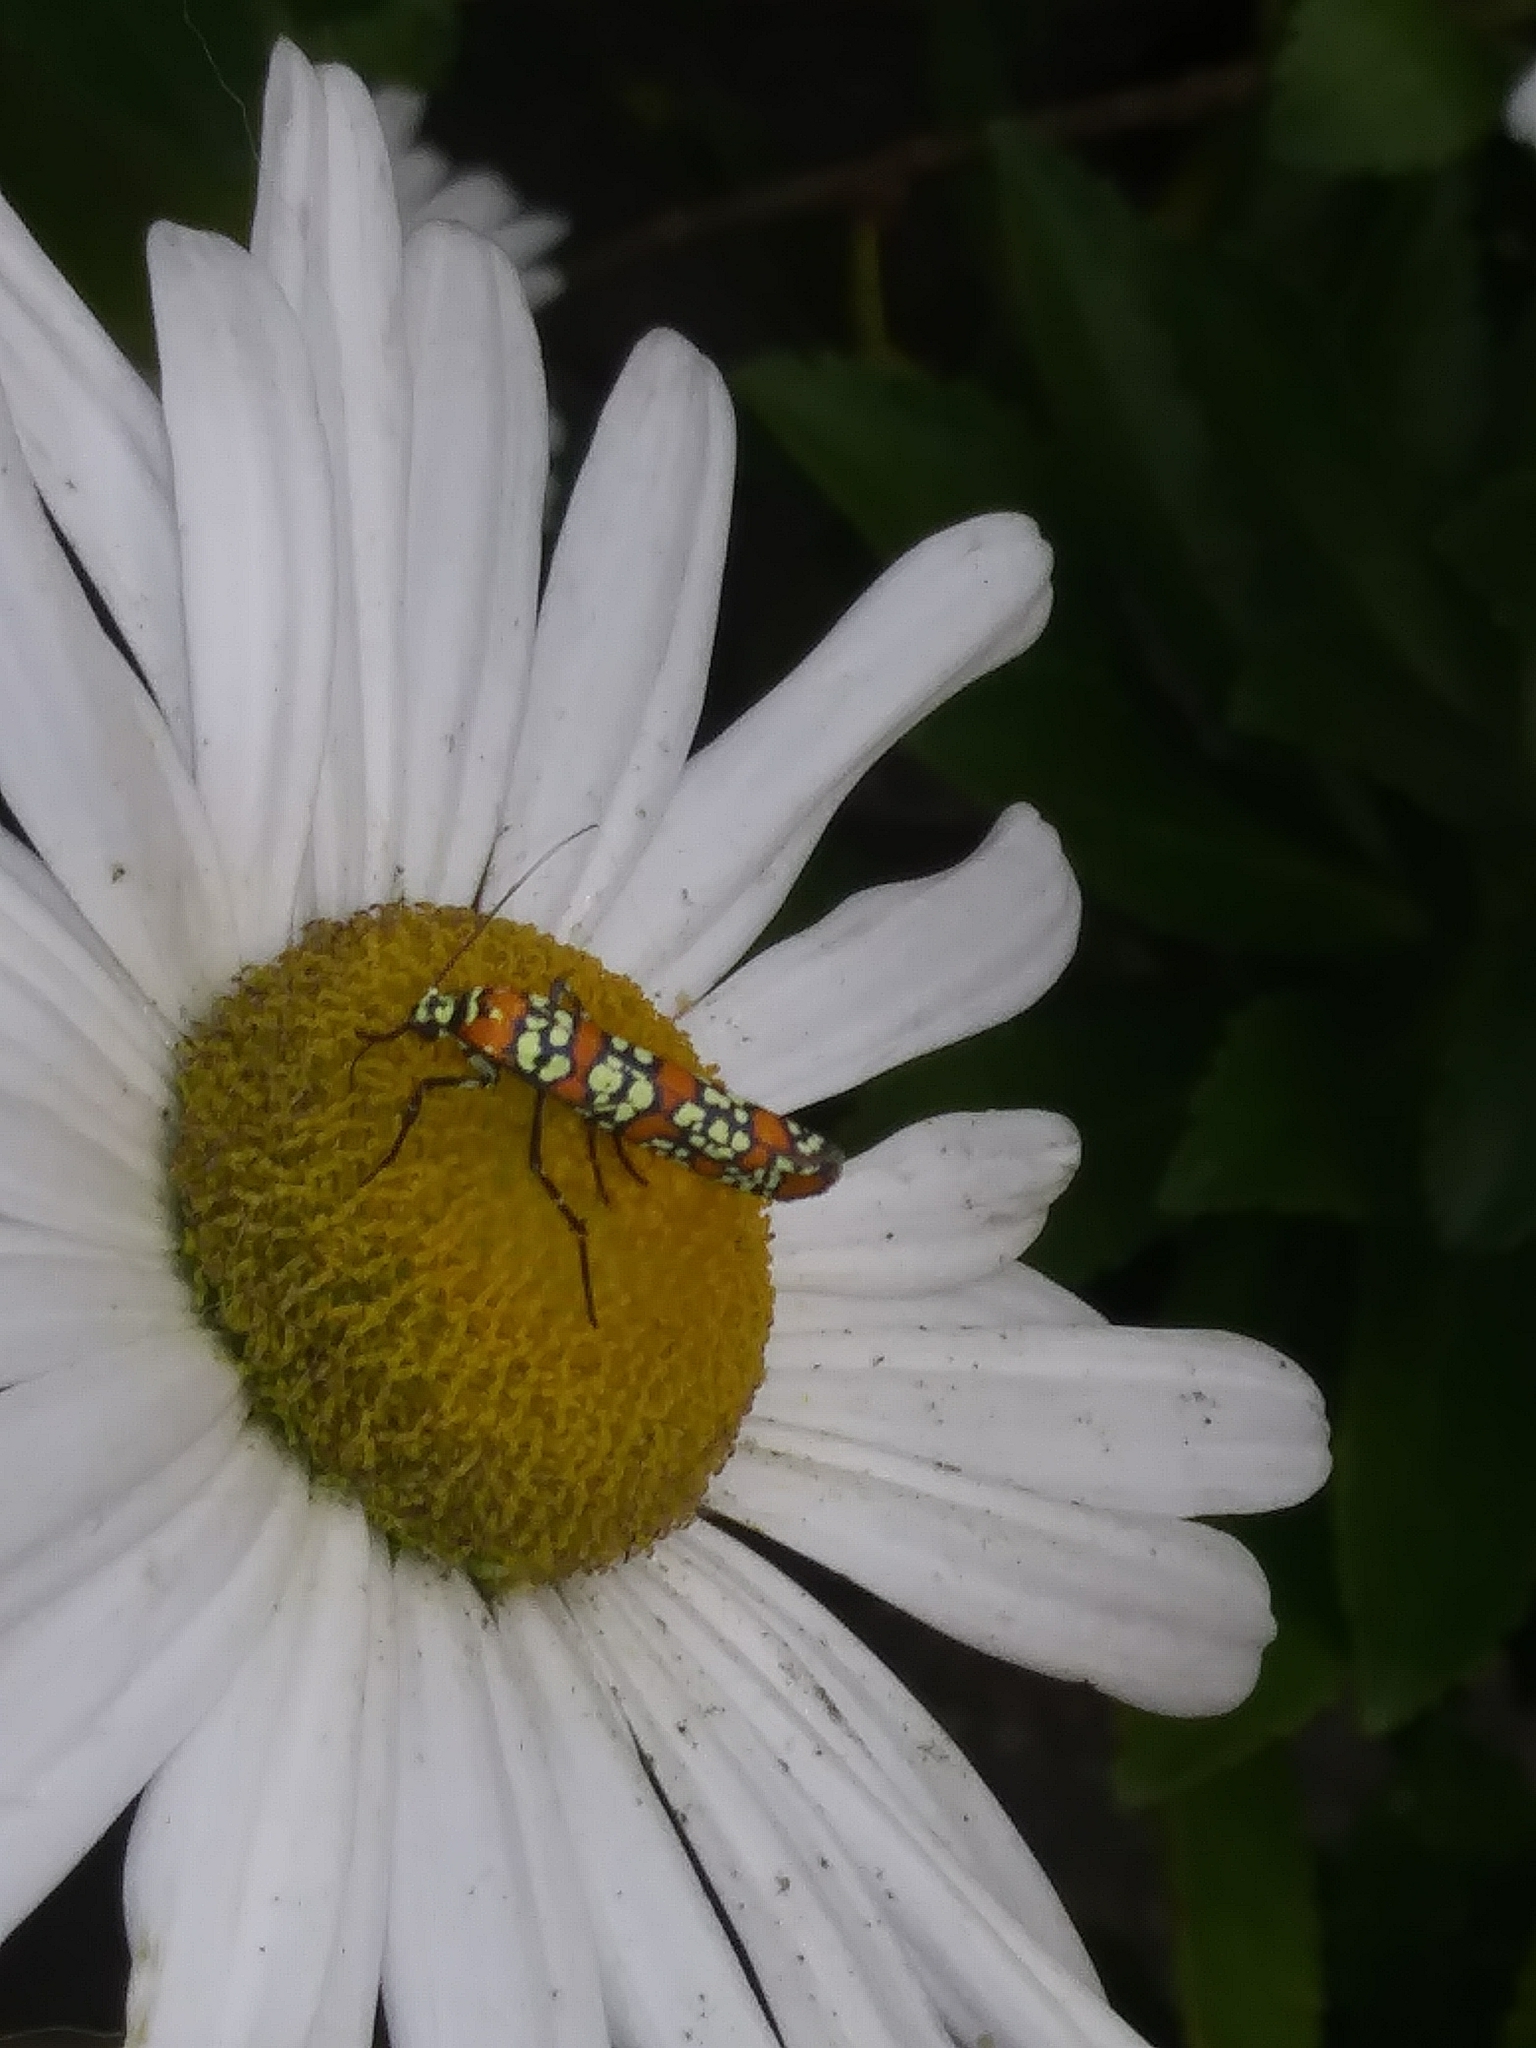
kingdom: Animalia
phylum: Arthropoda
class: Insecta
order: Lepidoptera
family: Attevidae
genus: Atteva
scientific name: Atteva punctella
